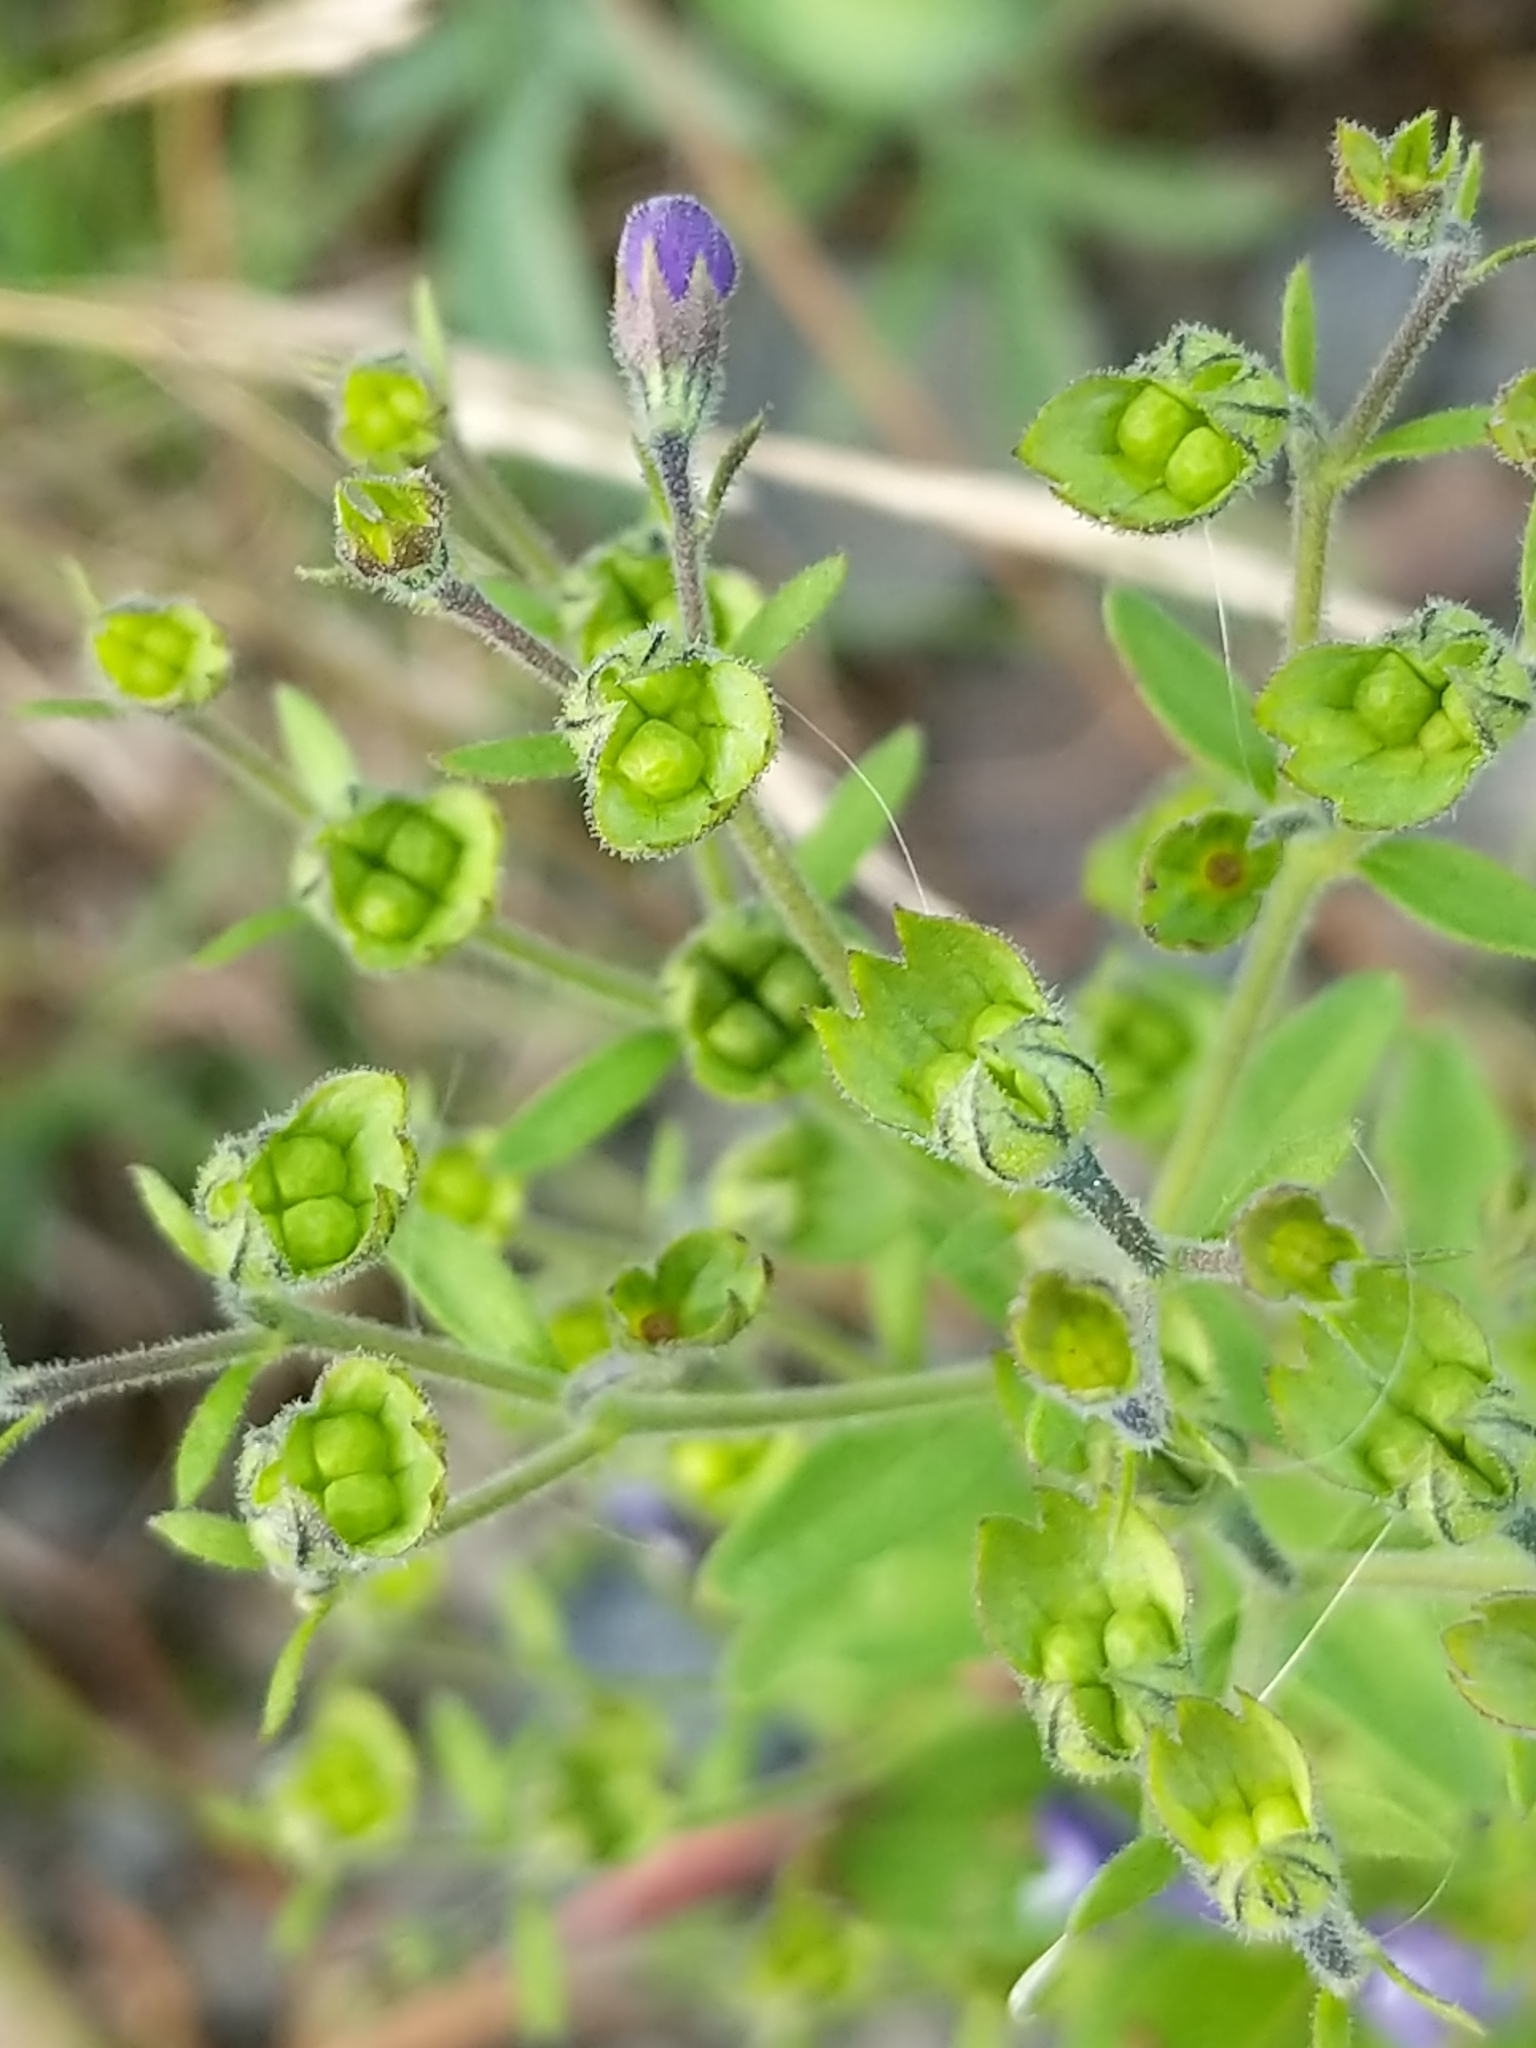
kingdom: Plantae
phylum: Tracheophyta
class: Magnoliopsida
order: Lamiales
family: Lamiaceae
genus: Trichostema
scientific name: Trichostema dichotomum
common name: Bastard pennyroyal
